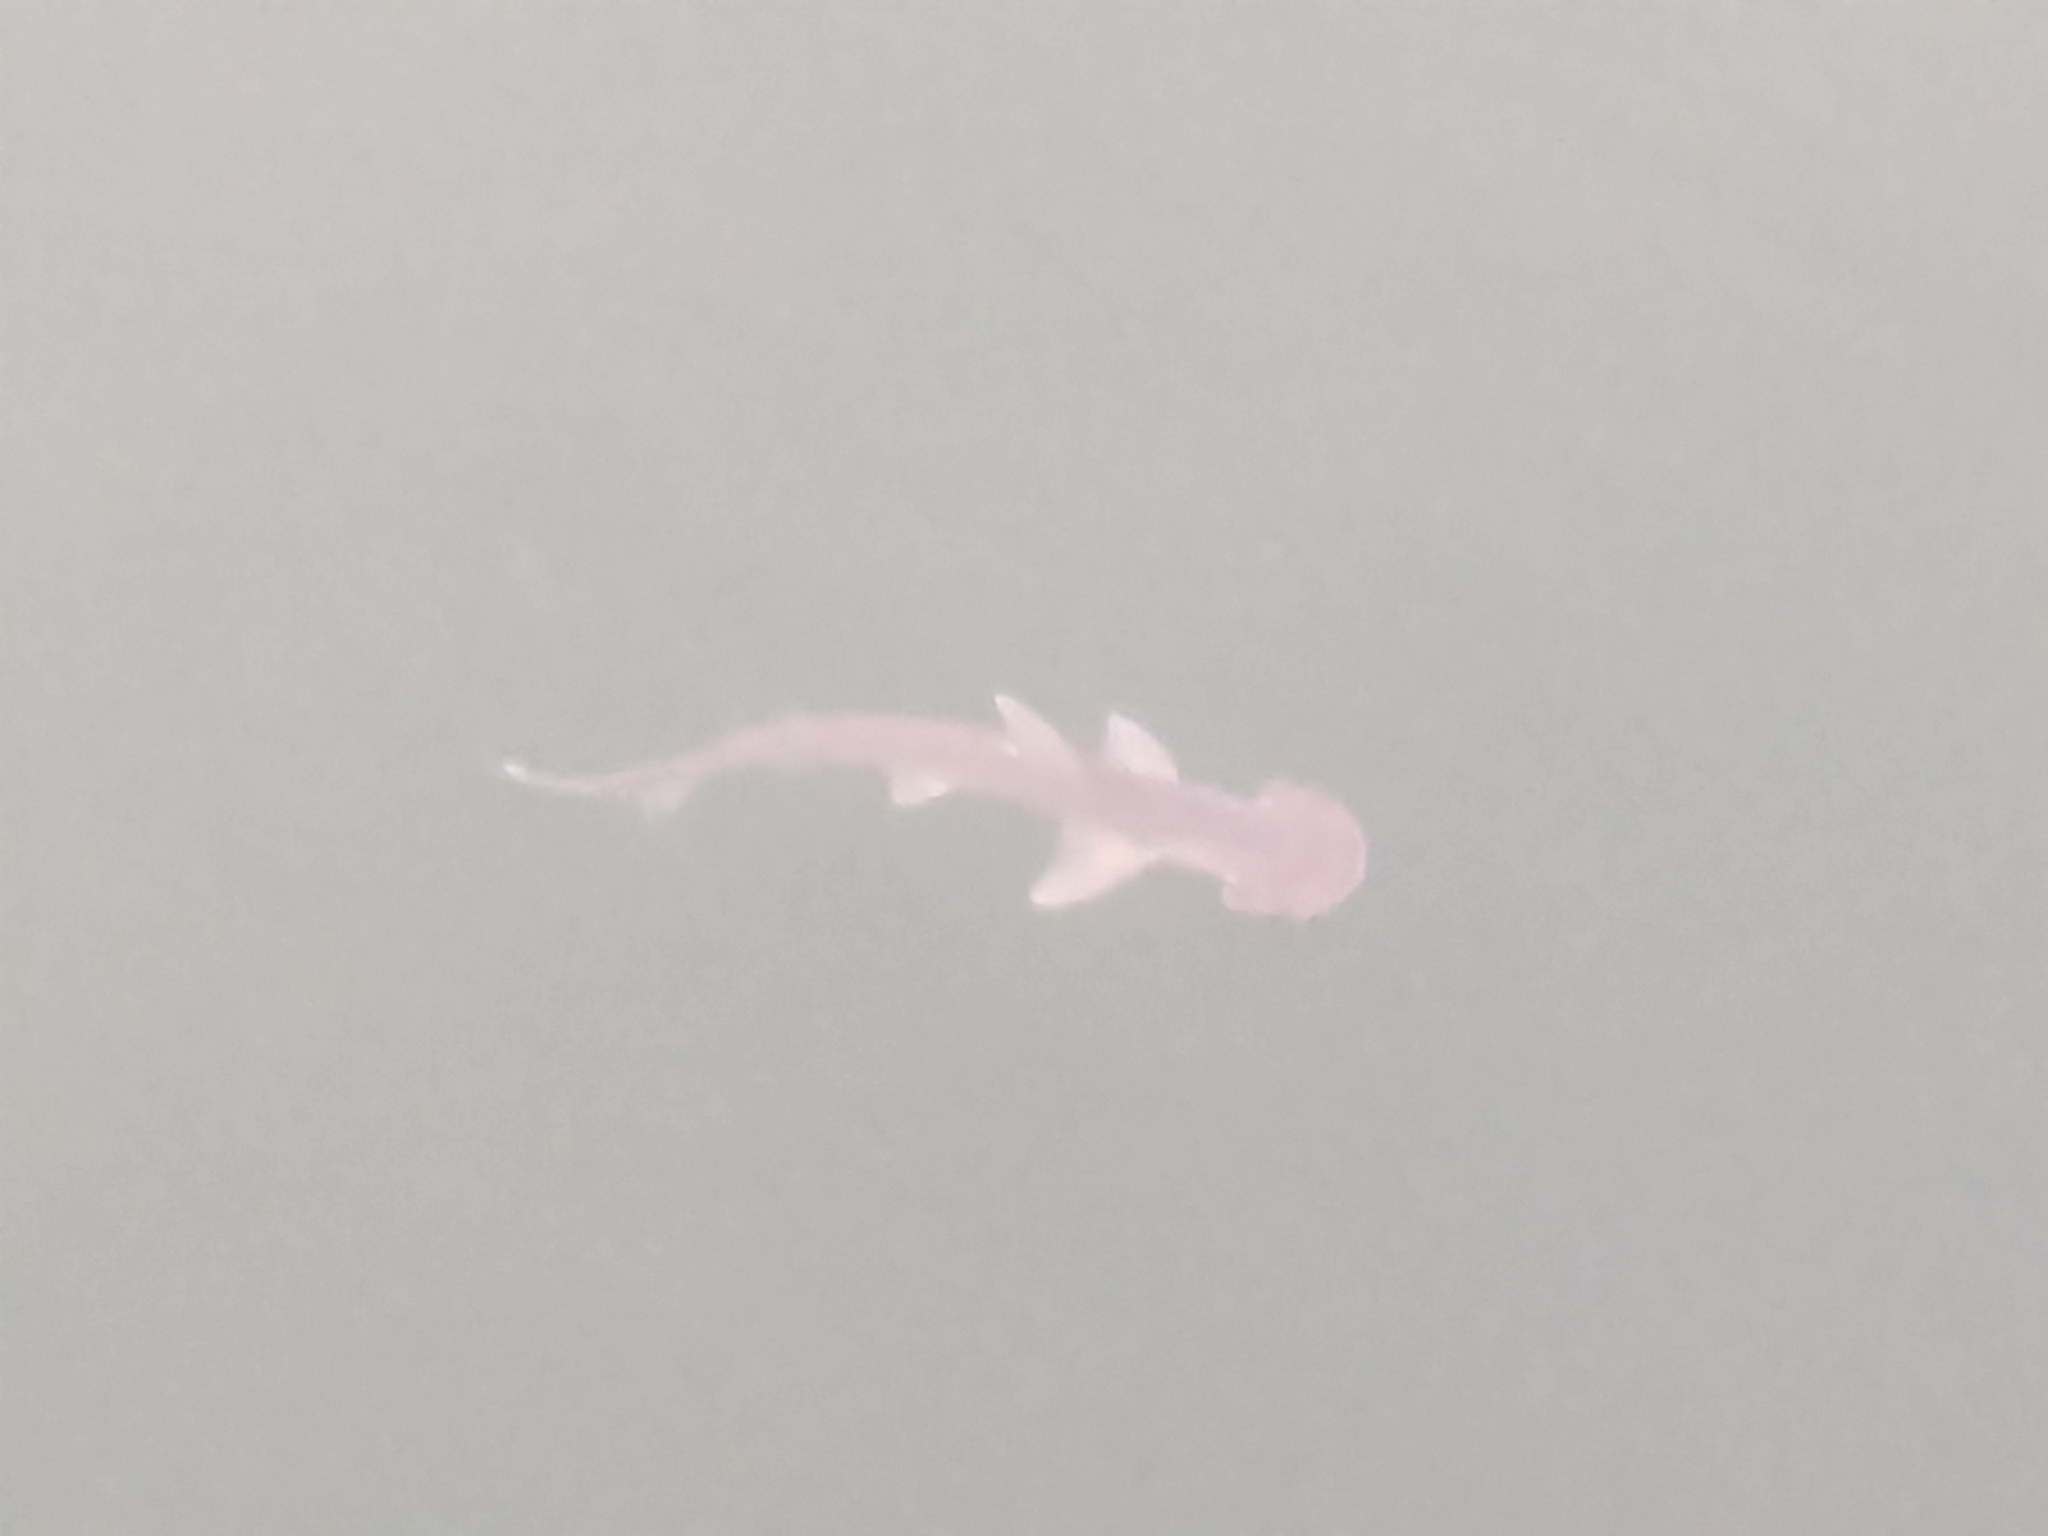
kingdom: Animalia
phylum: Chordata
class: Elasmobranchii
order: Carcharhiniformes
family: Sphyrnidae
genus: Sphyrna
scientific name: Sphyrna tiburo
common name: Bonnethead
